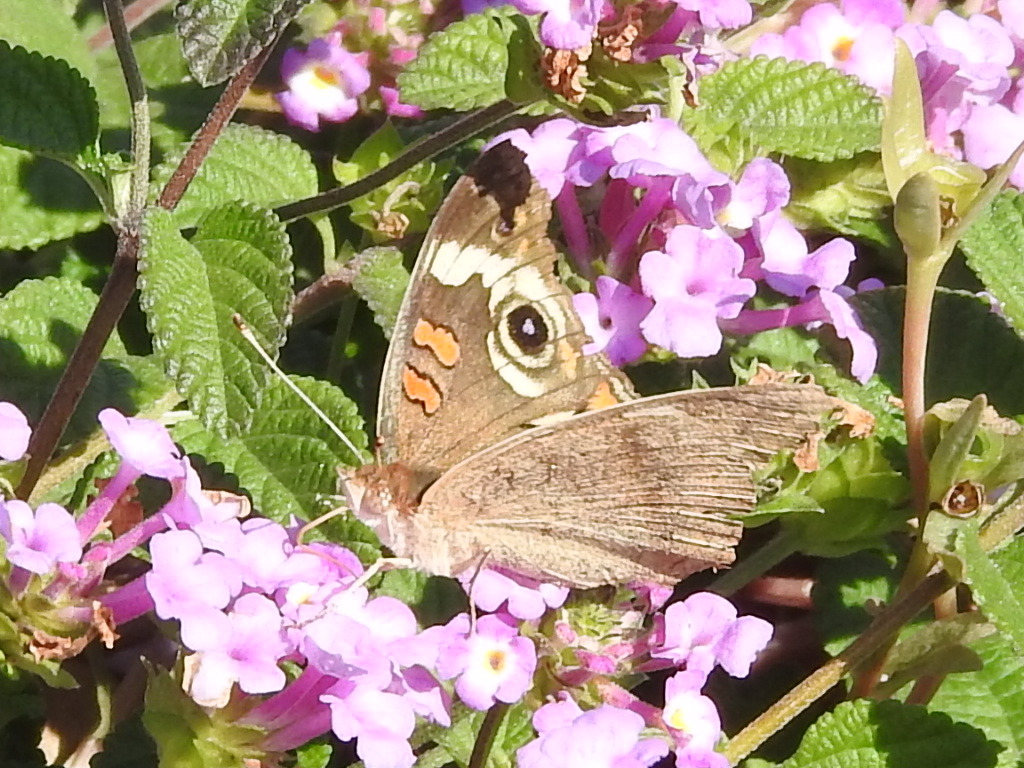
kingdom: Animalia
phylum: Arthropoda
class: Insecta
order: Lepidoptera
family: Nymphalidae
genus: Junonia
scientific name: Junonia coenia
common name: Common buckeye
